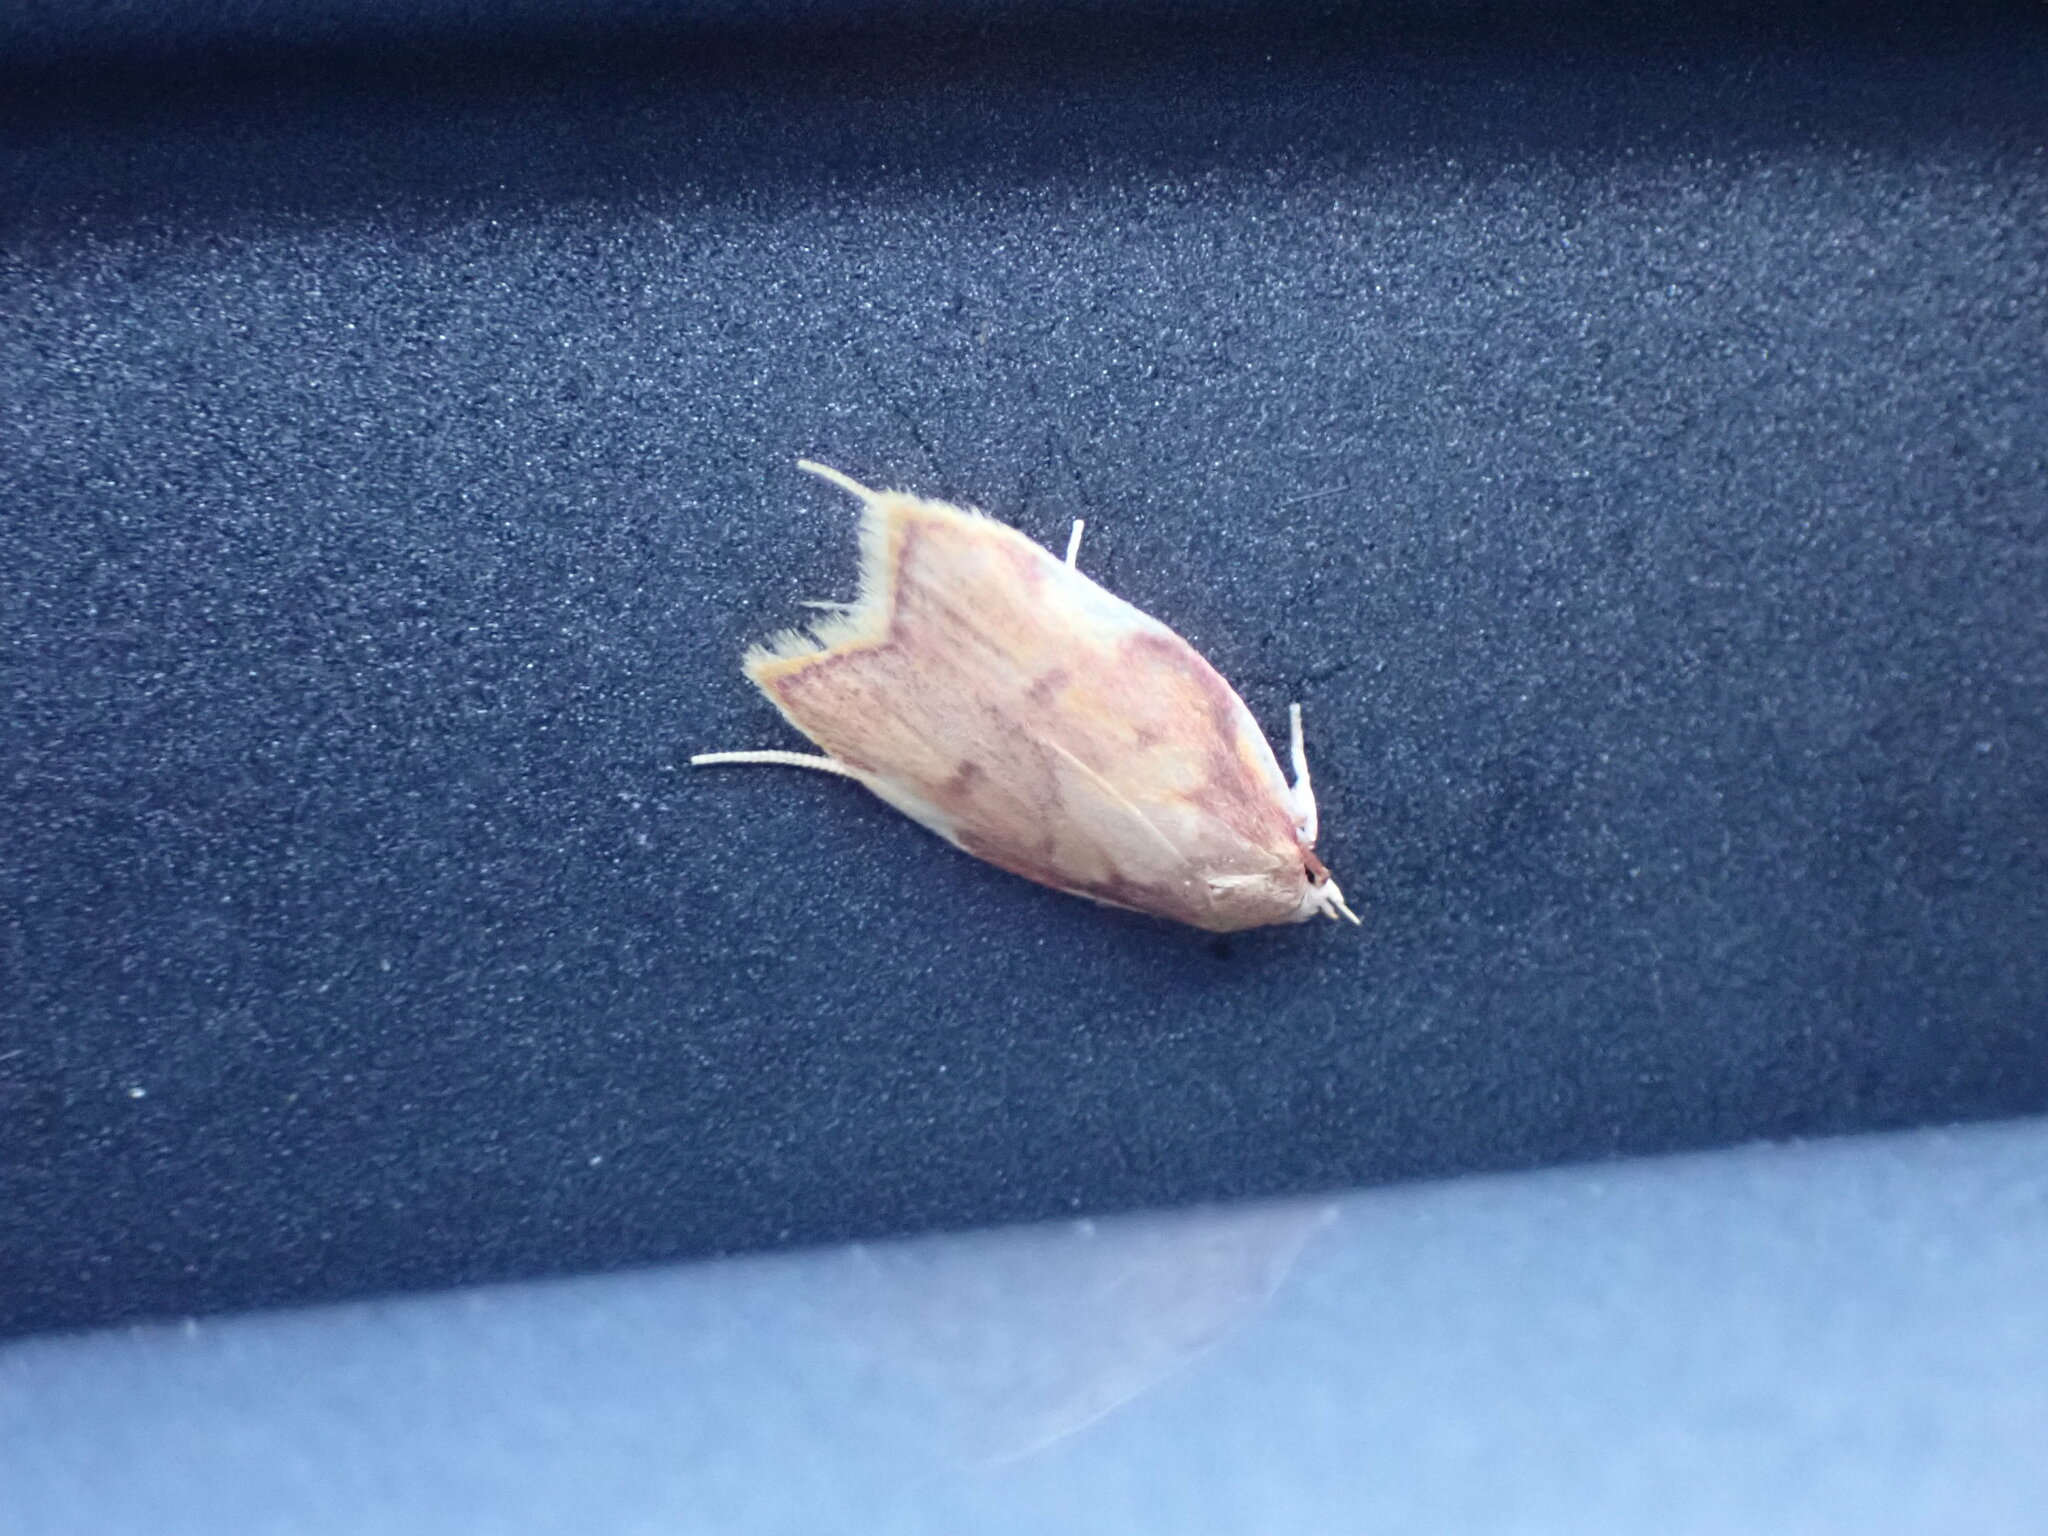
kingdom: Animalia
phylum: Arthropoda
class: Insecta
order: Lepidoptera
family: Peleopodidae
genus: Carcina
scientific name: Carcina quercana
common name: Moth
